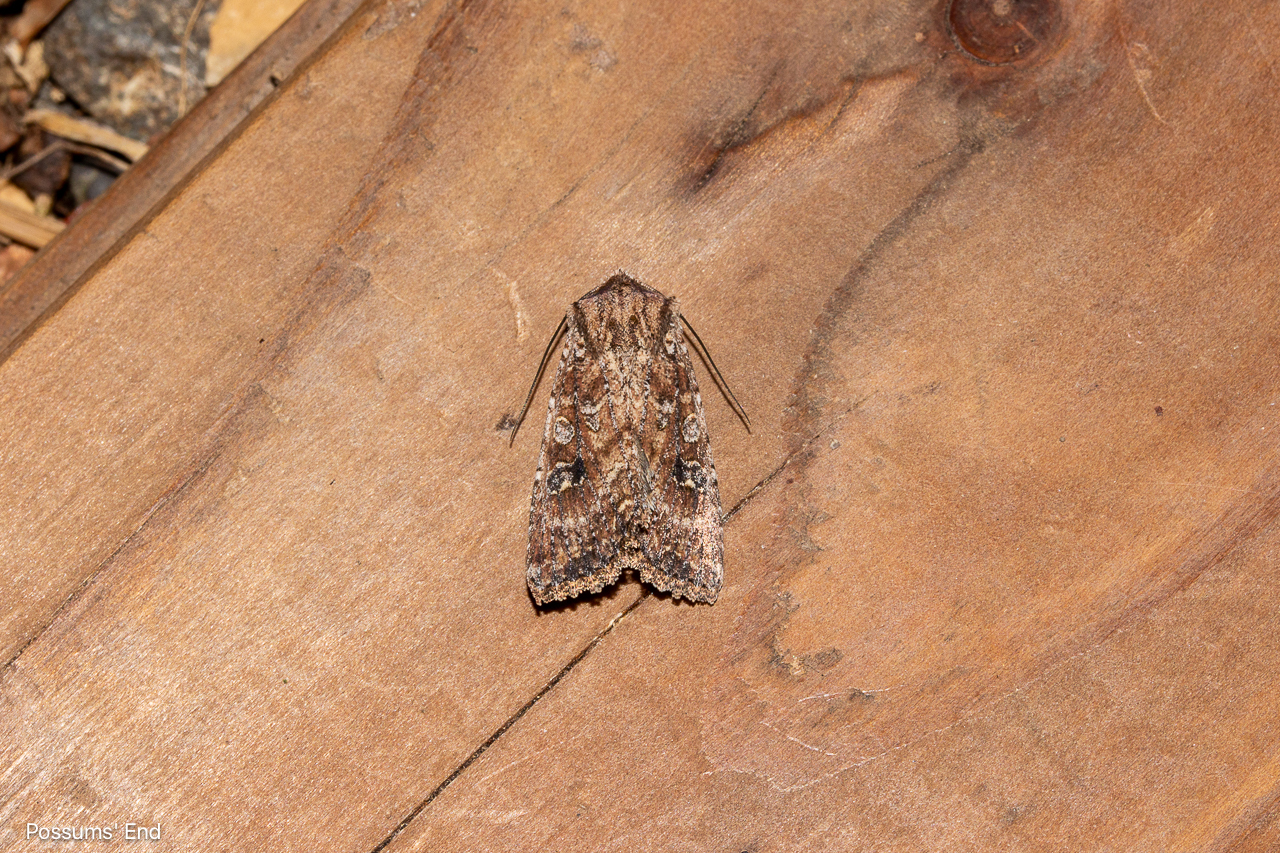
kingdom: Animalia
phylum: Arthropoda
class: Insecta
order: Lepidoptera
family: Noctuidae
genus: Ichneutica
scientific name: Ichneutica mustulenta
